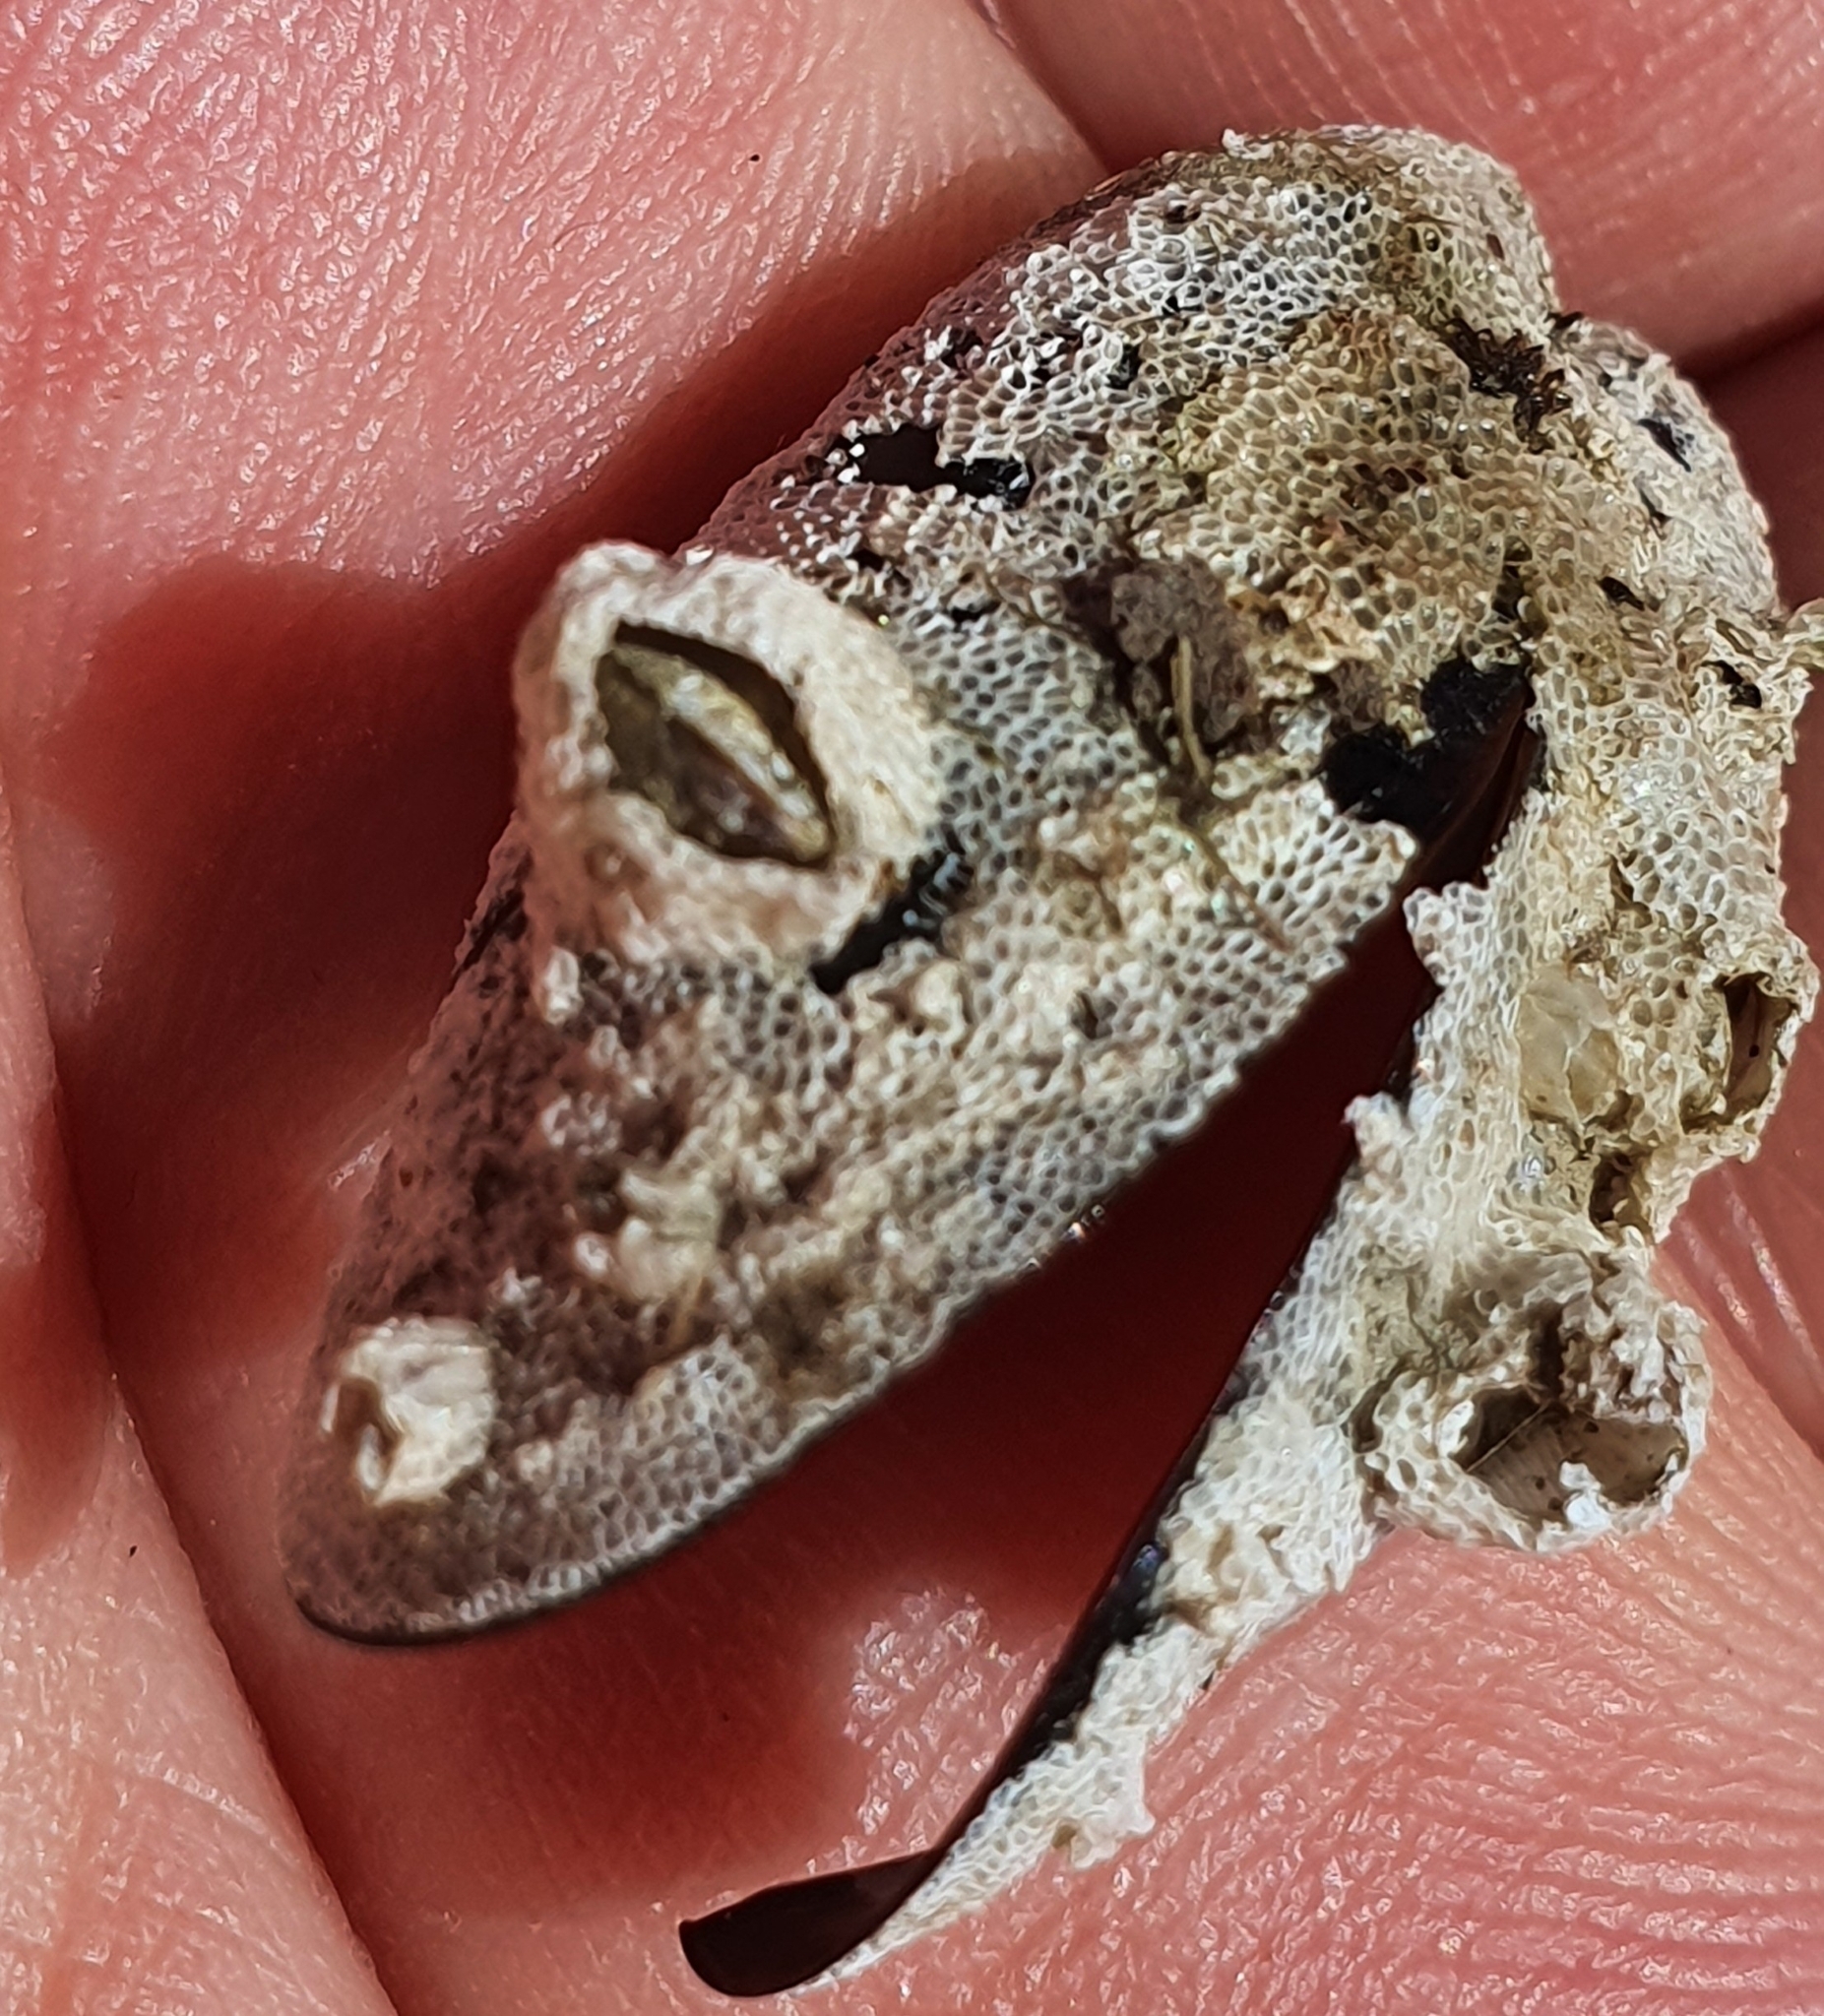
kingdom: Animalia
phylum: Bryozoa
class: Gymnolaemata
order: Cheilostomatida
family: Electridae
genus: Einhornia
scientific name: Einhornia crustulenta
